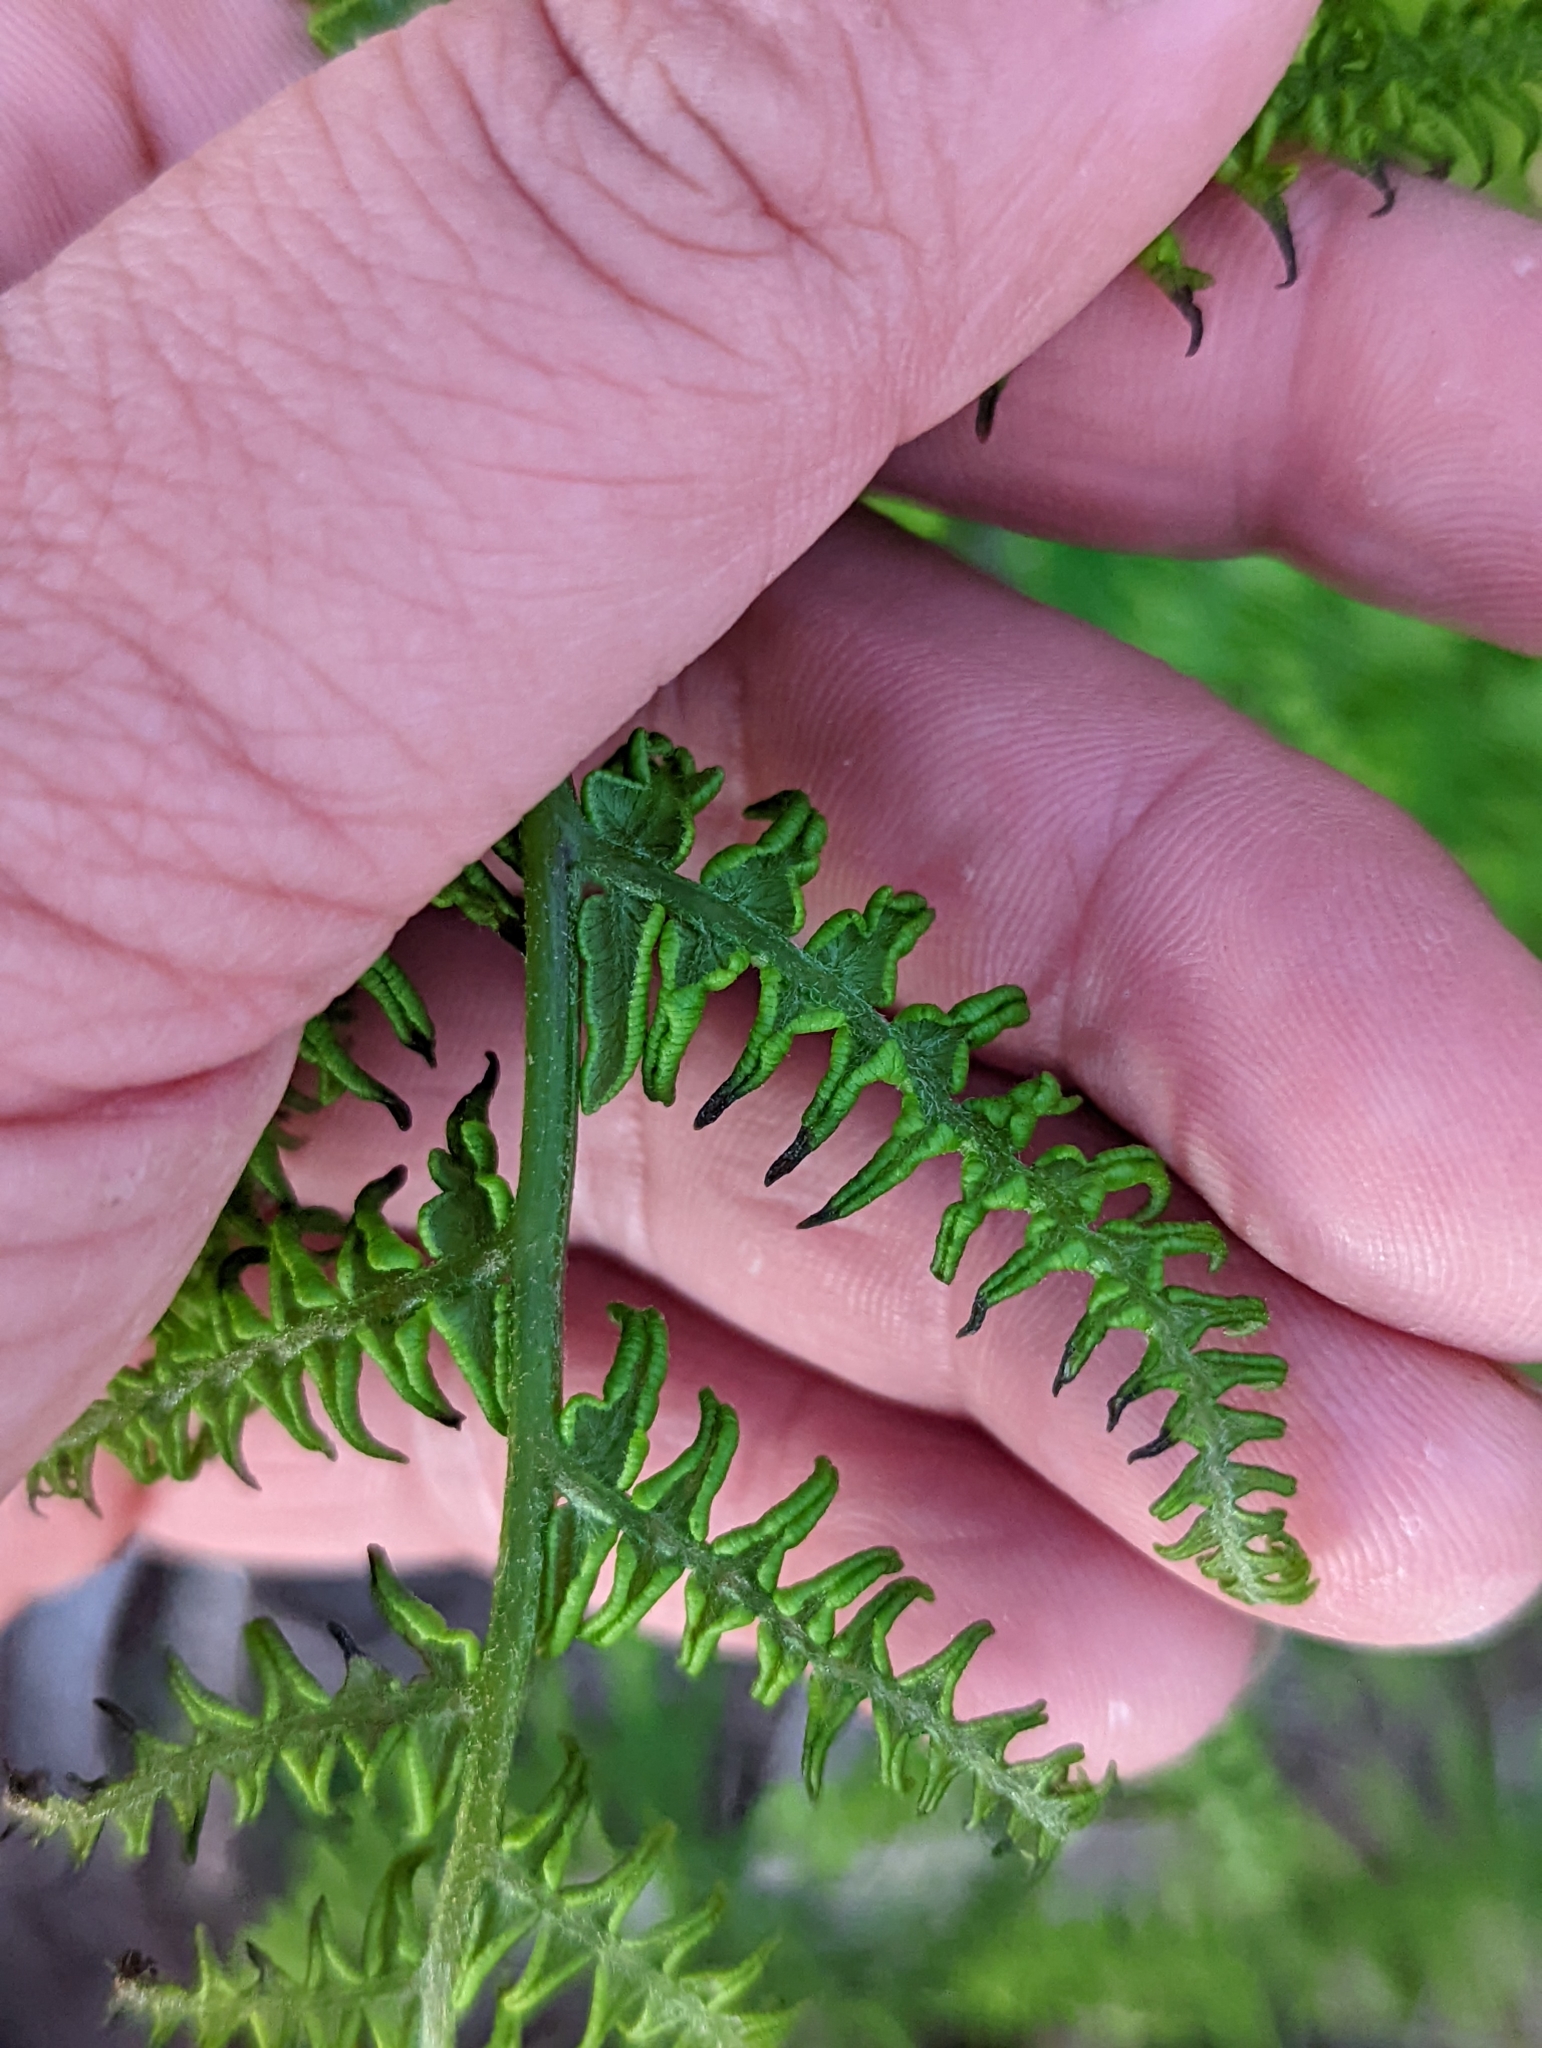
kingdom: Plantae
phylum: Tracheophyta
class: Polypodiopsida
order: Polypodiales
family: Dennstaedtiaceae
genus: Pteridium
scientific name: Pteridium aquilinum
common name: Bracken
